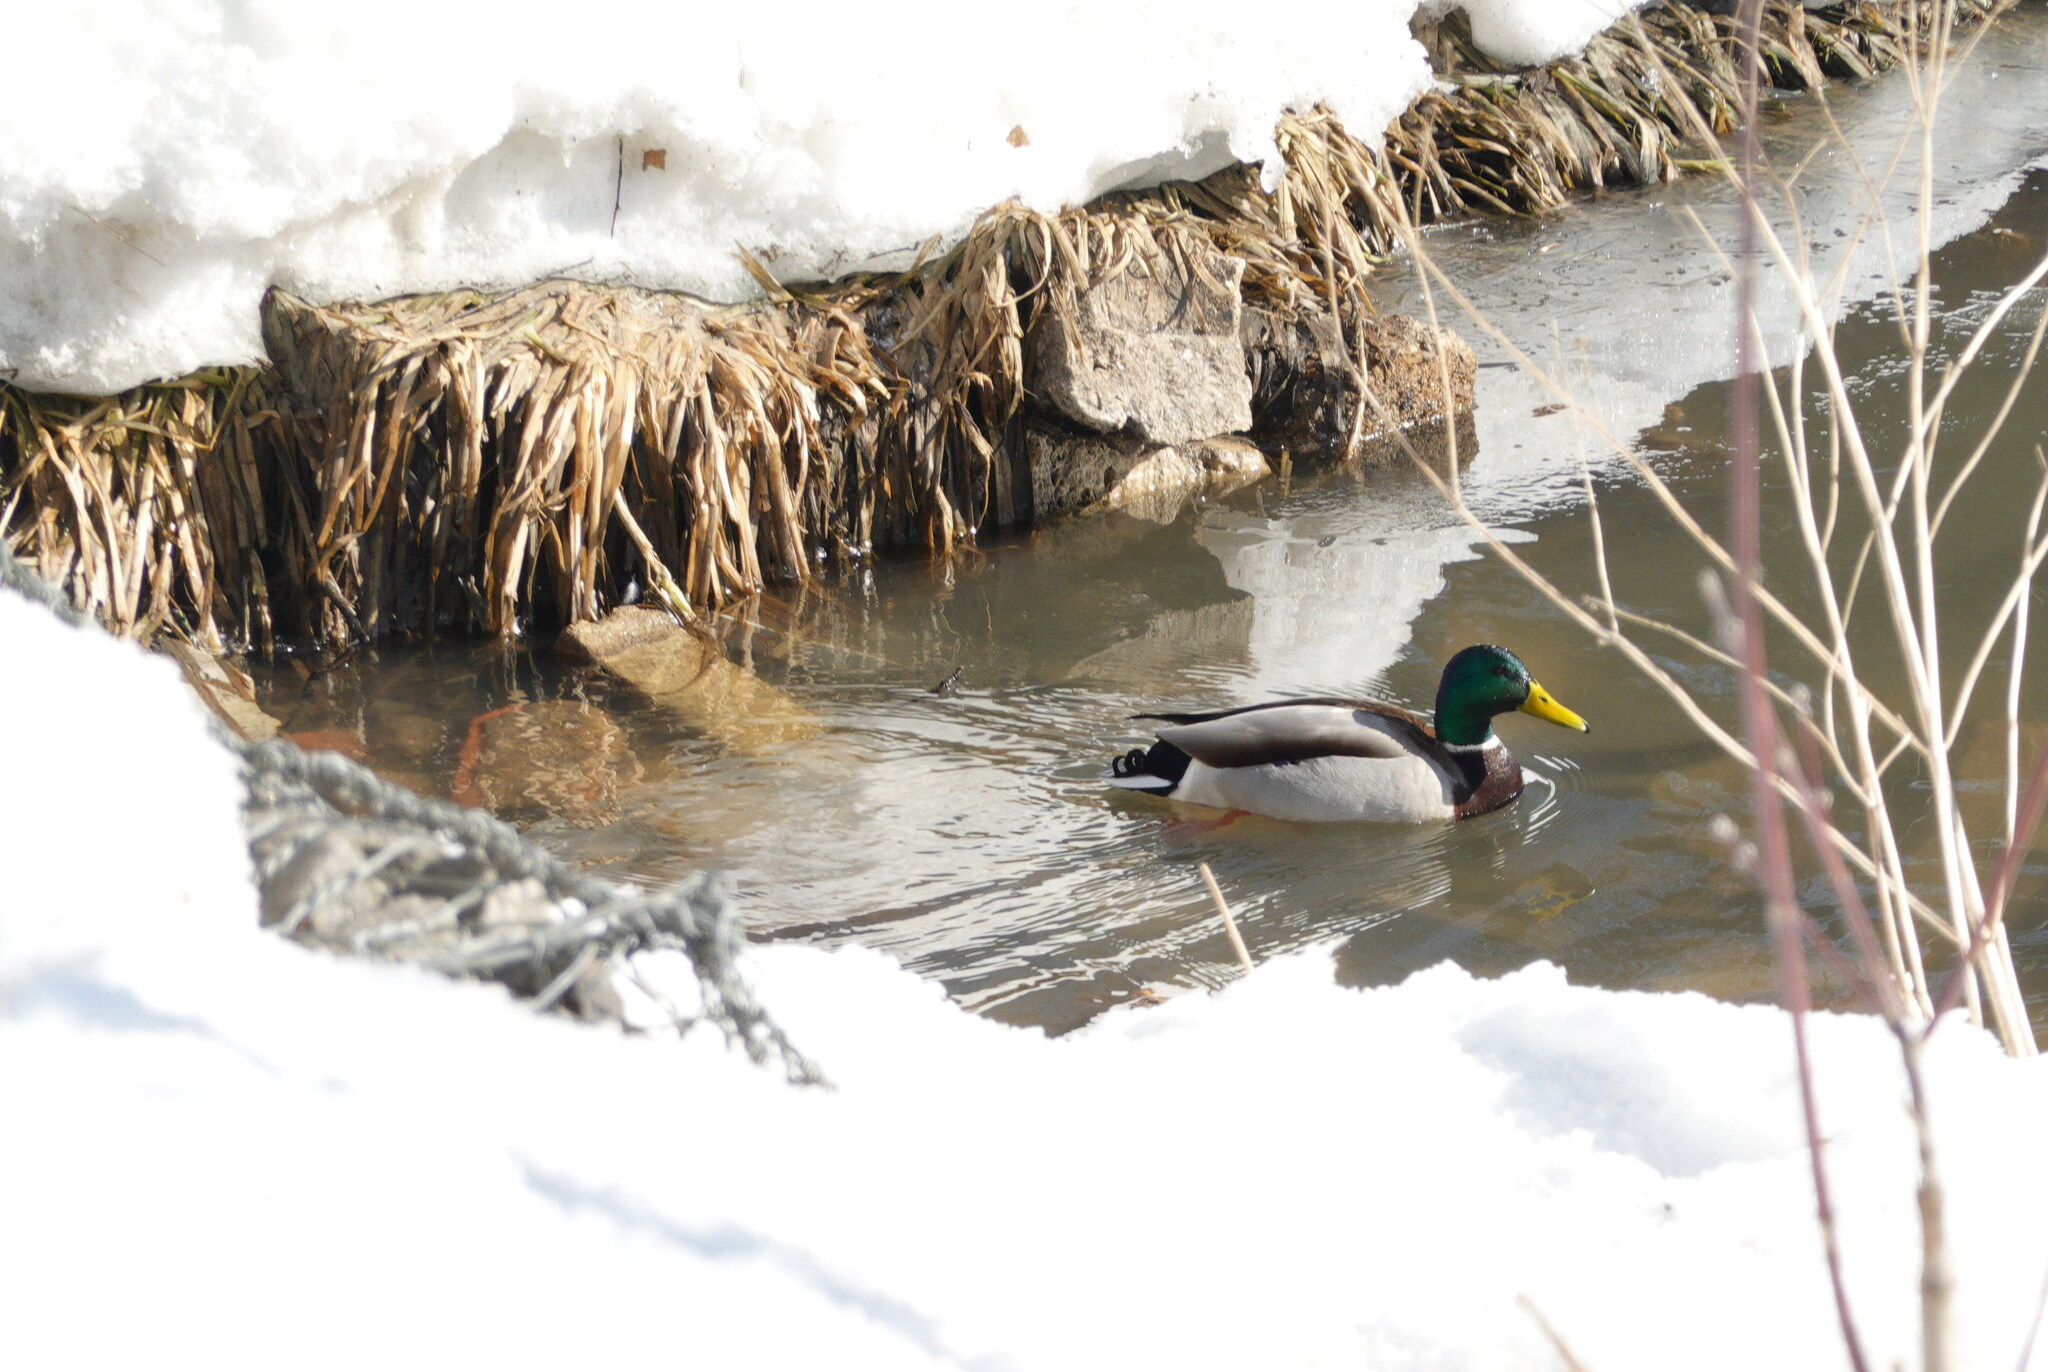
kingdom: Animalia
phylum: Chordata
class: Aves
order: Anseriformes
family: Anatidae
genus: Anas
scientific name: Anas platyrhynchos
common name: Mallard
